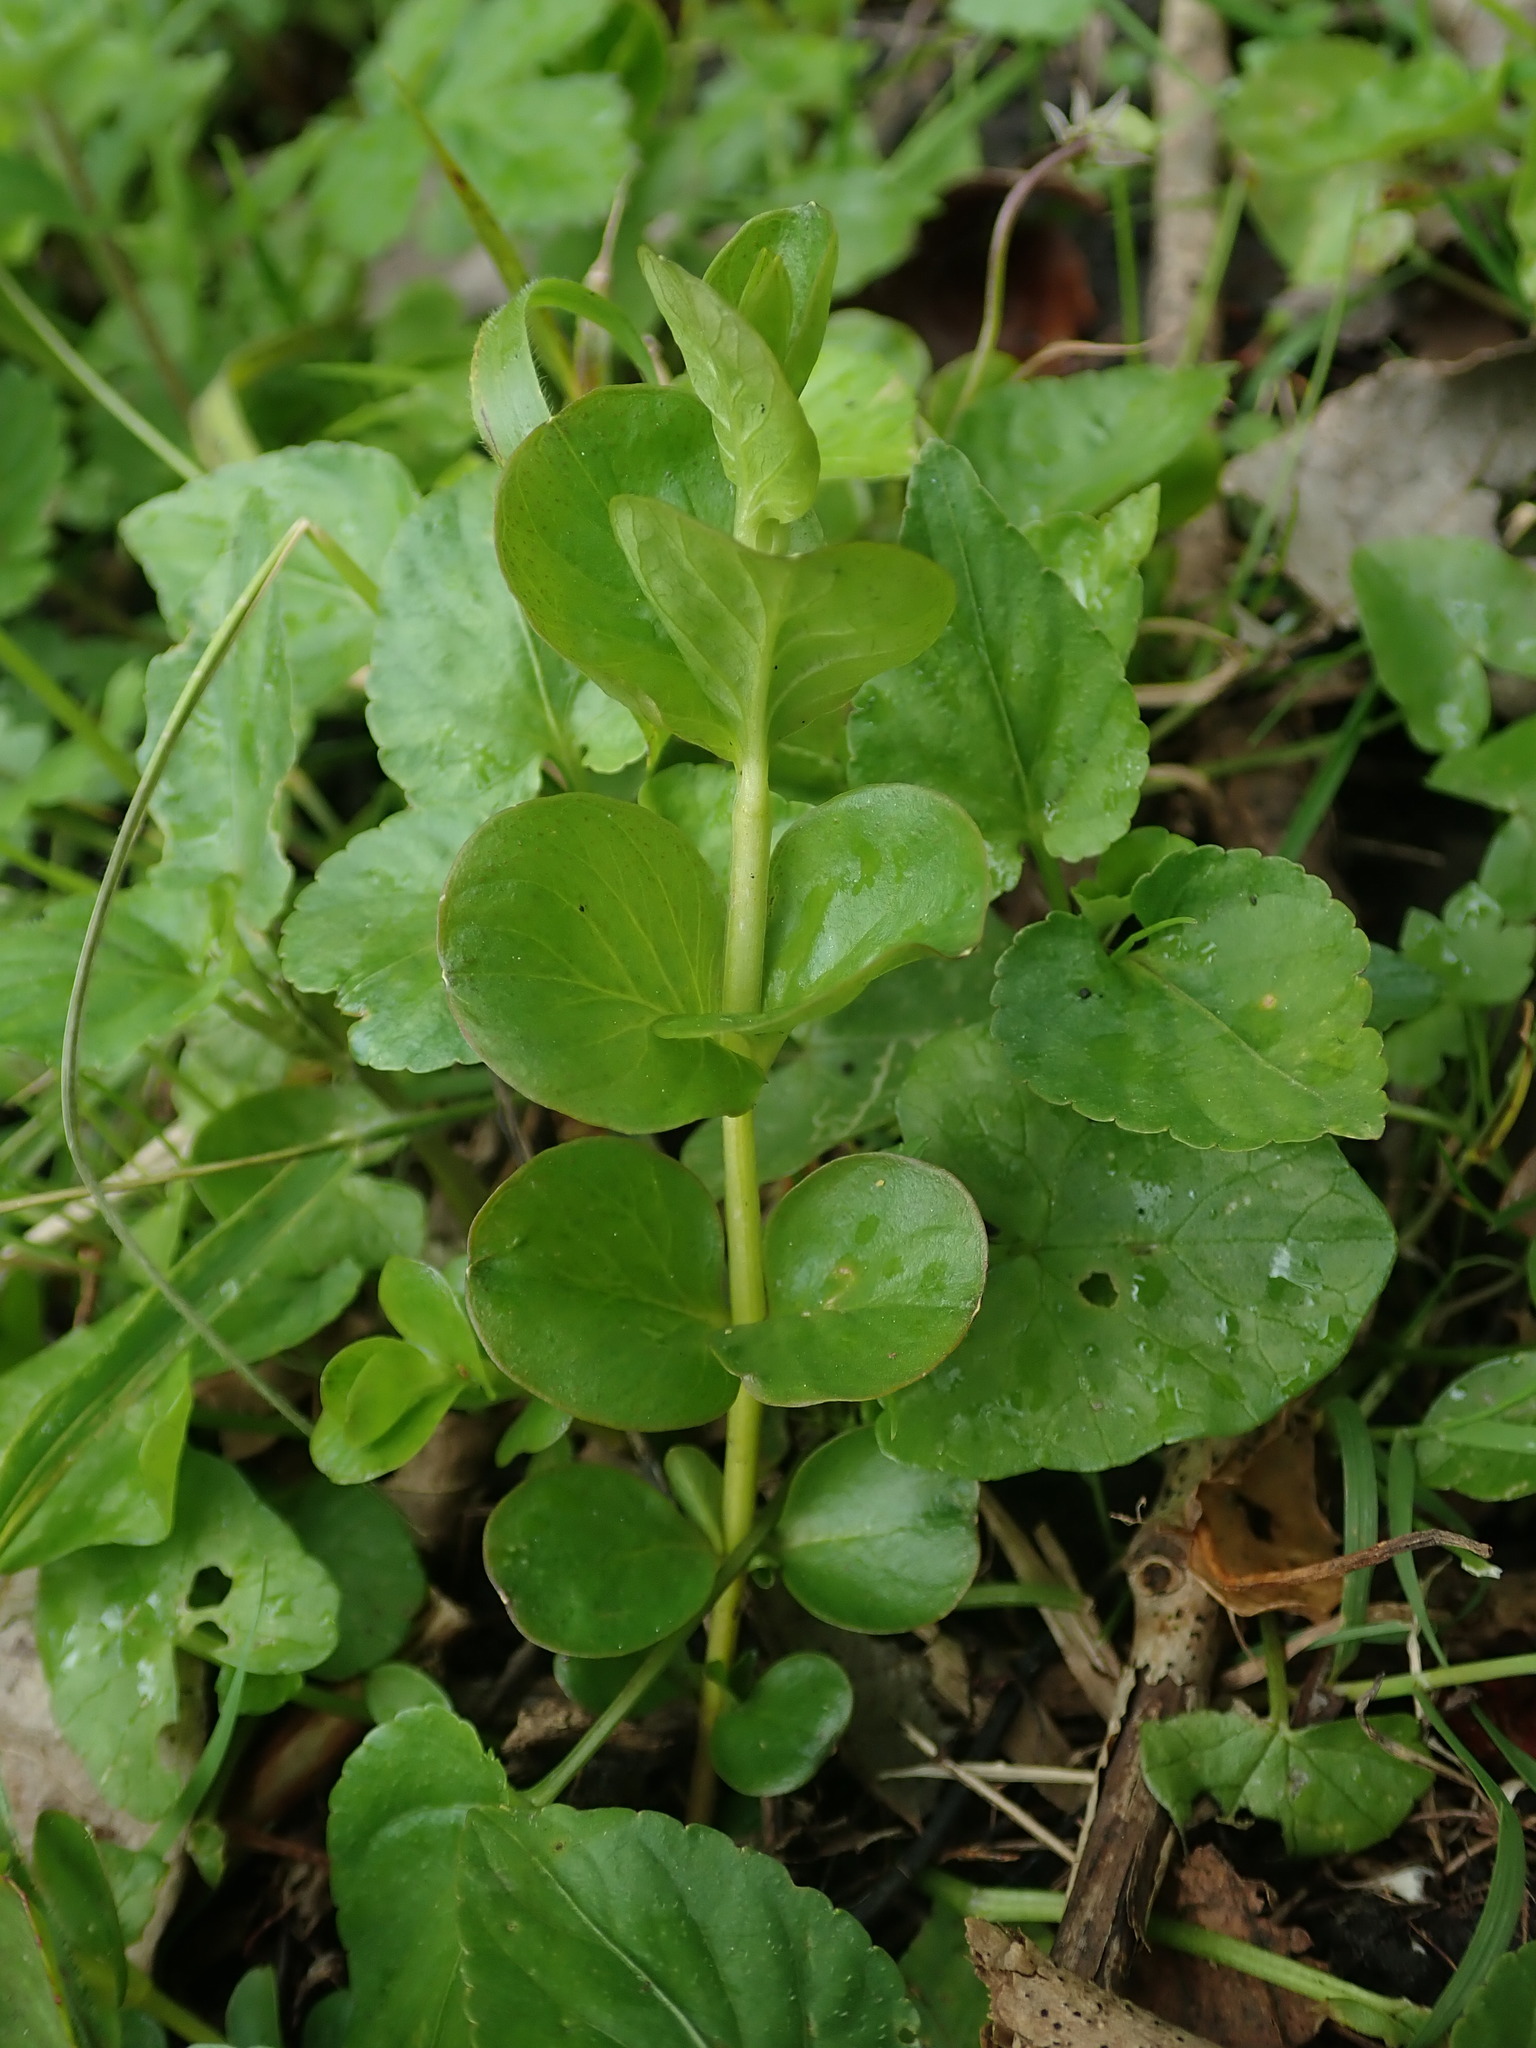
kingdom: Plantae
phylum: Tracheophyta
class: Magnoliopsida
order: Ericales
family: Primulaceae
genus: Lysimachia
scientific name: Lysimachia nummularia
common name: Moneywort
